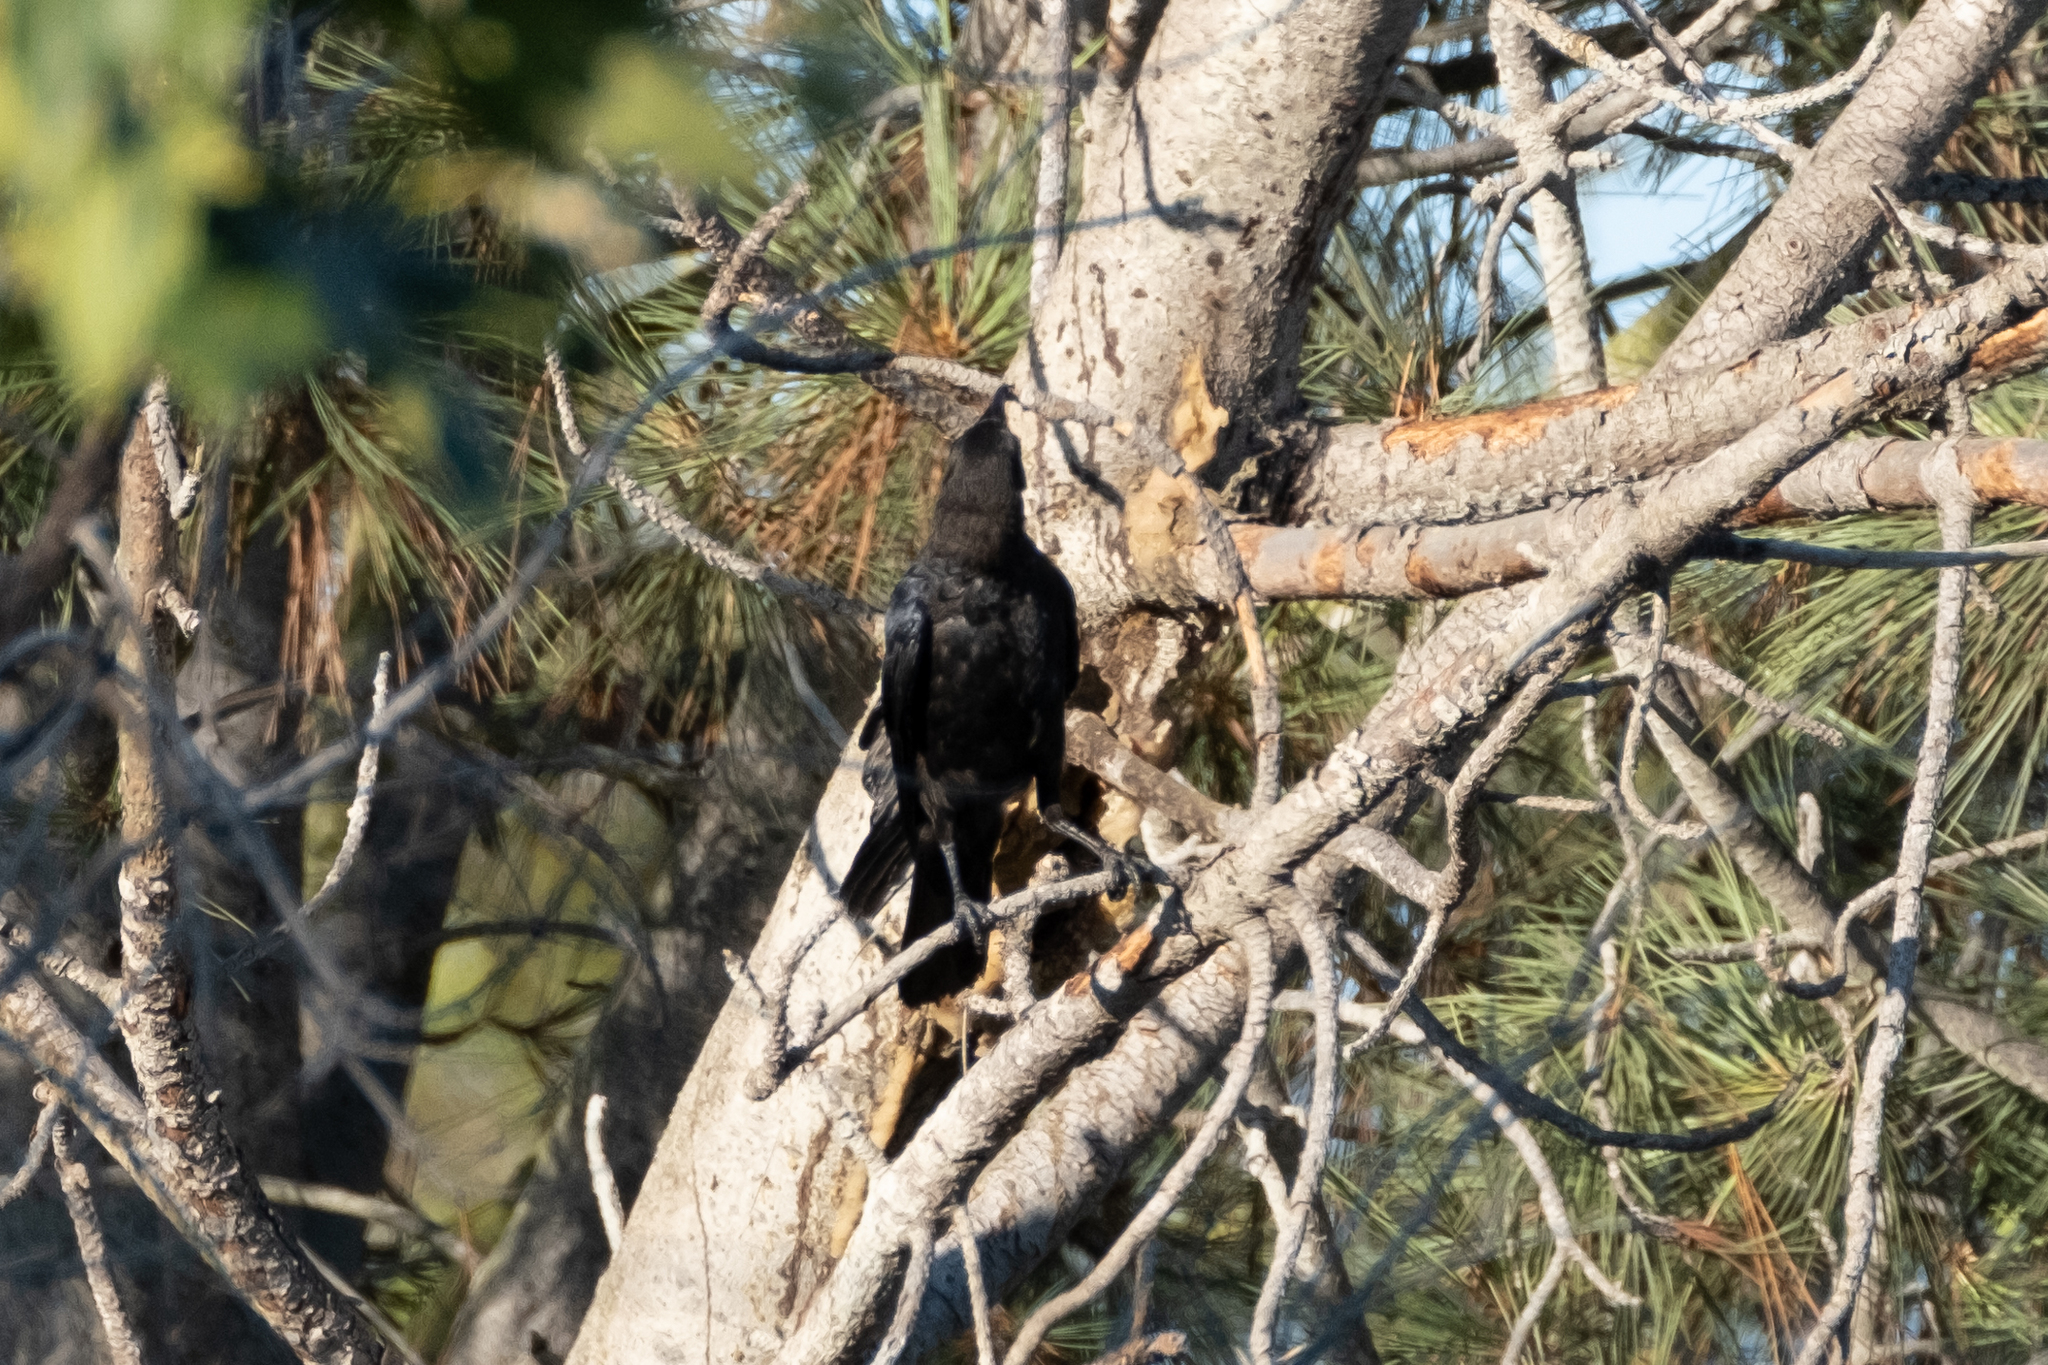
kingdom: Animalia
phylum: Chordata
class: Aves
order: Passeriformes
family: Corvidae
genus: Corvus
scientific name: Corvus brachyrhynchos
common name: American crow
